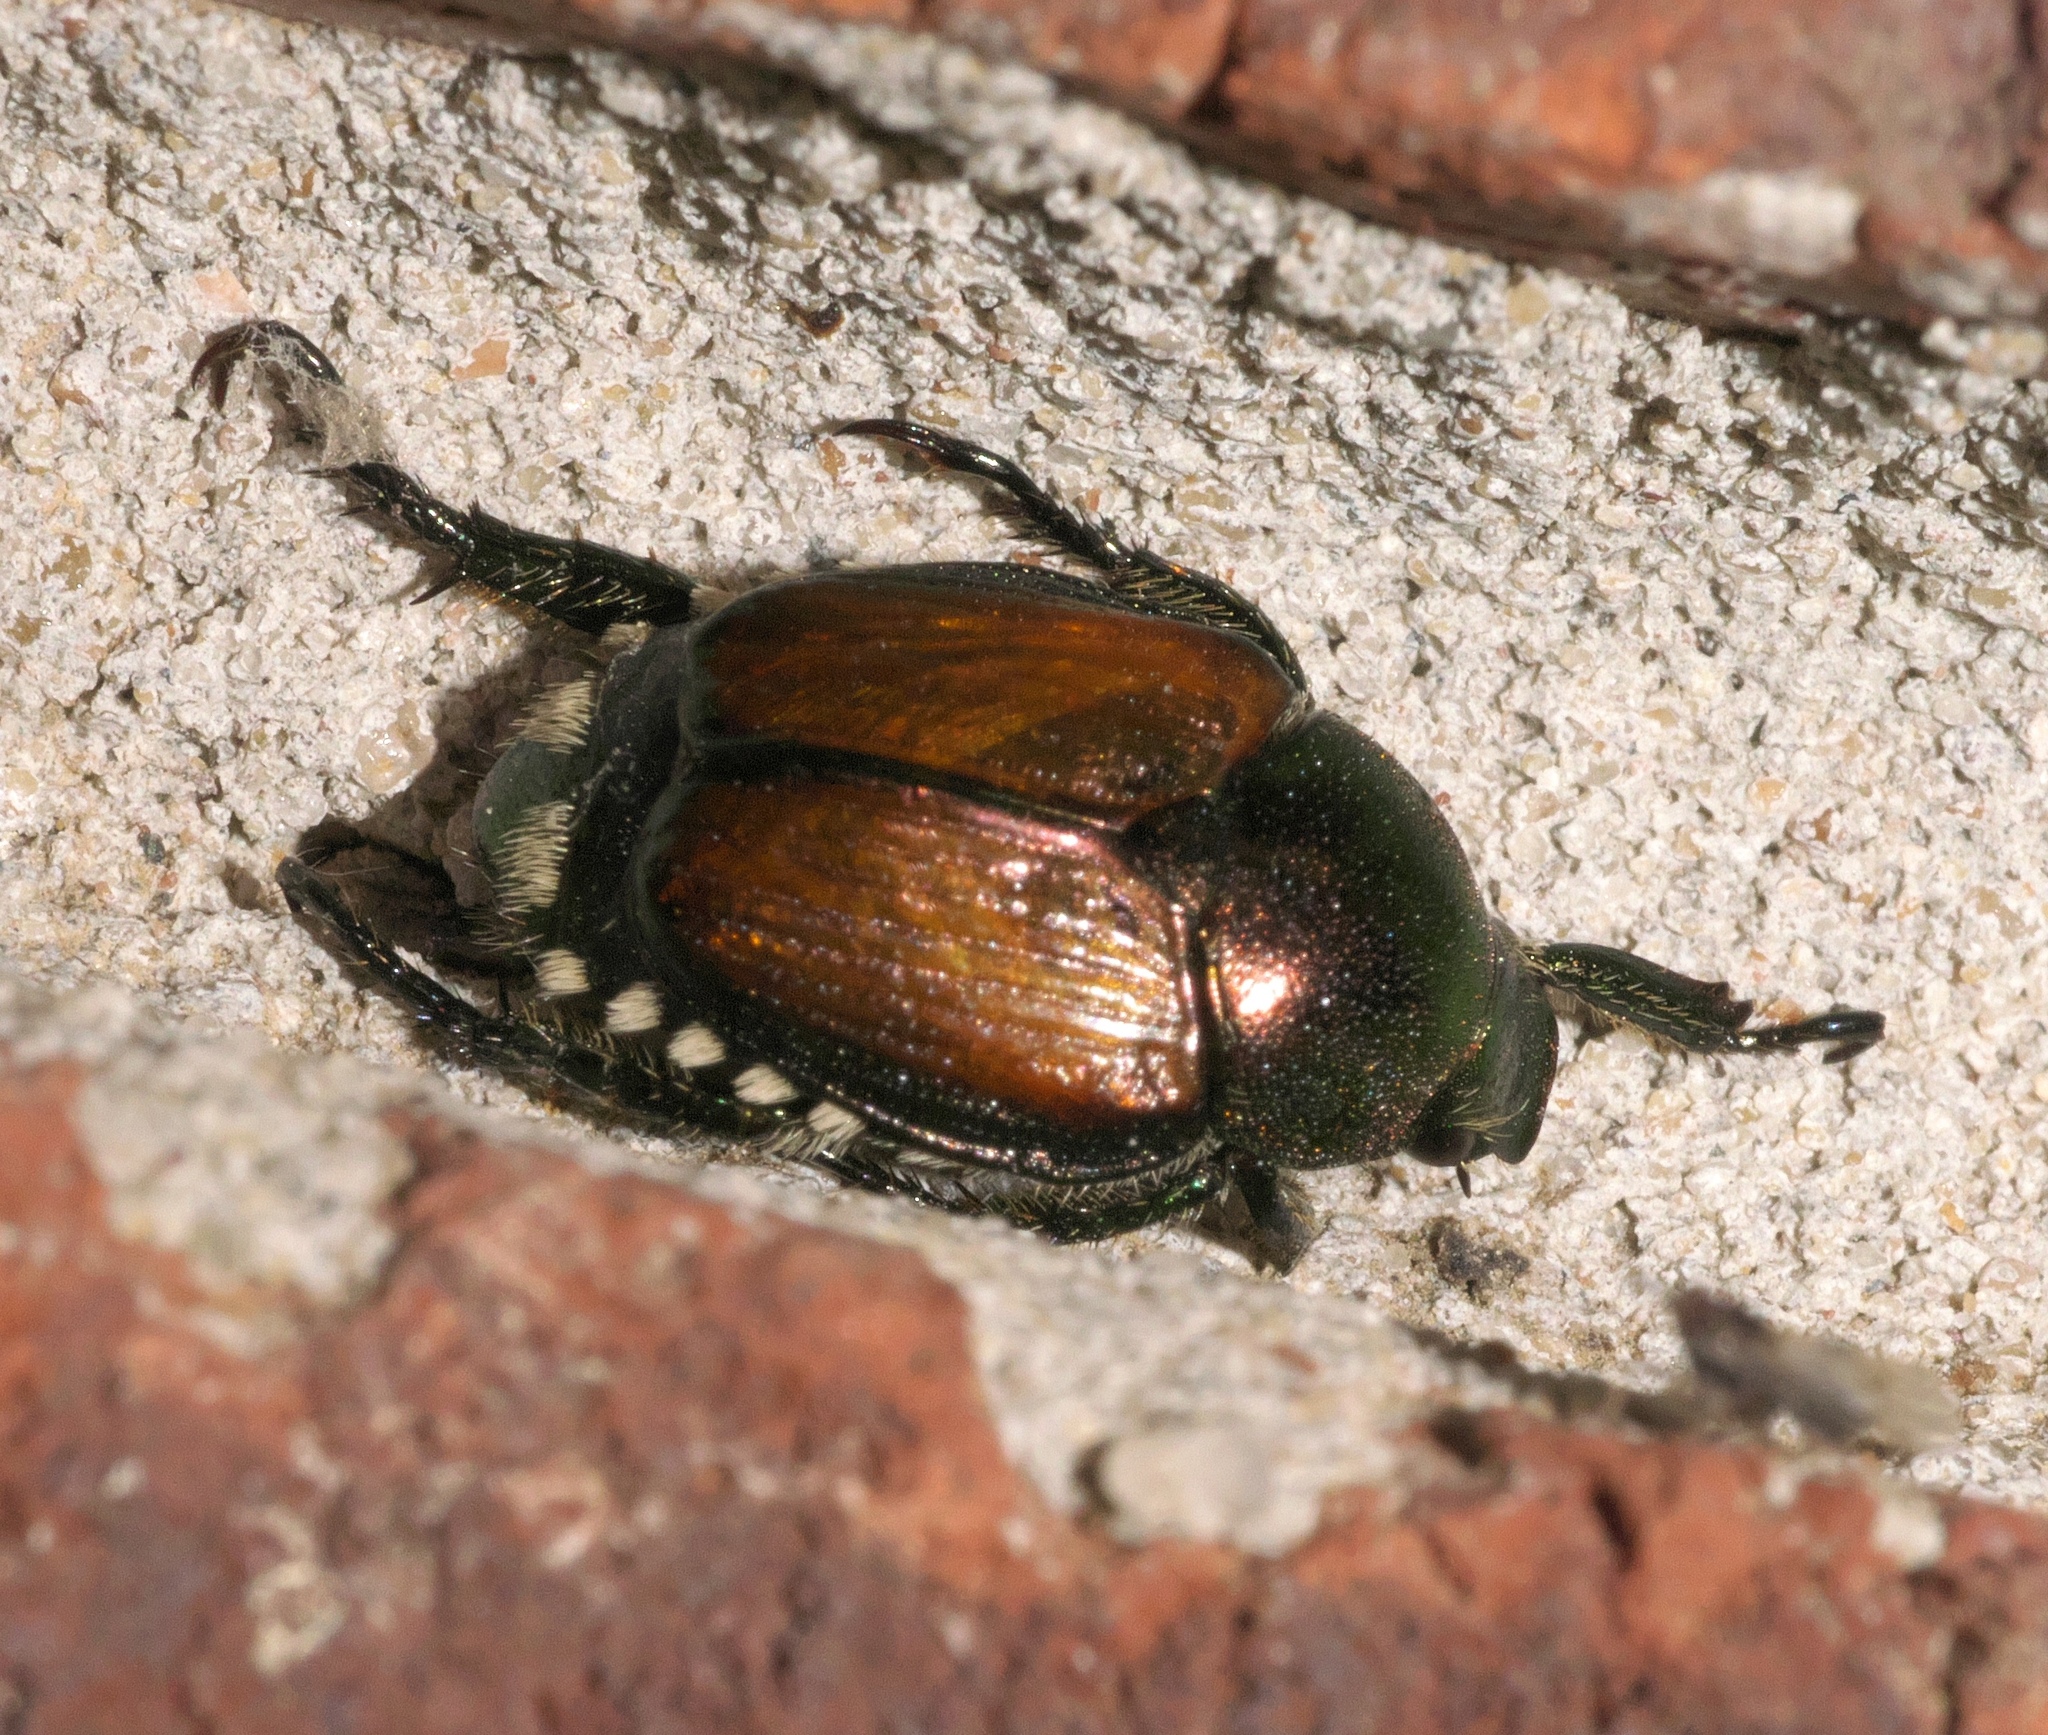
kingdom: Animalia
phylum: Arthropoda
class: Insecta
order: Coleoptera
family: Scarabaeidae
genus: Popillia
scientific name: Popillia japonica
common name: Japanese beetle
